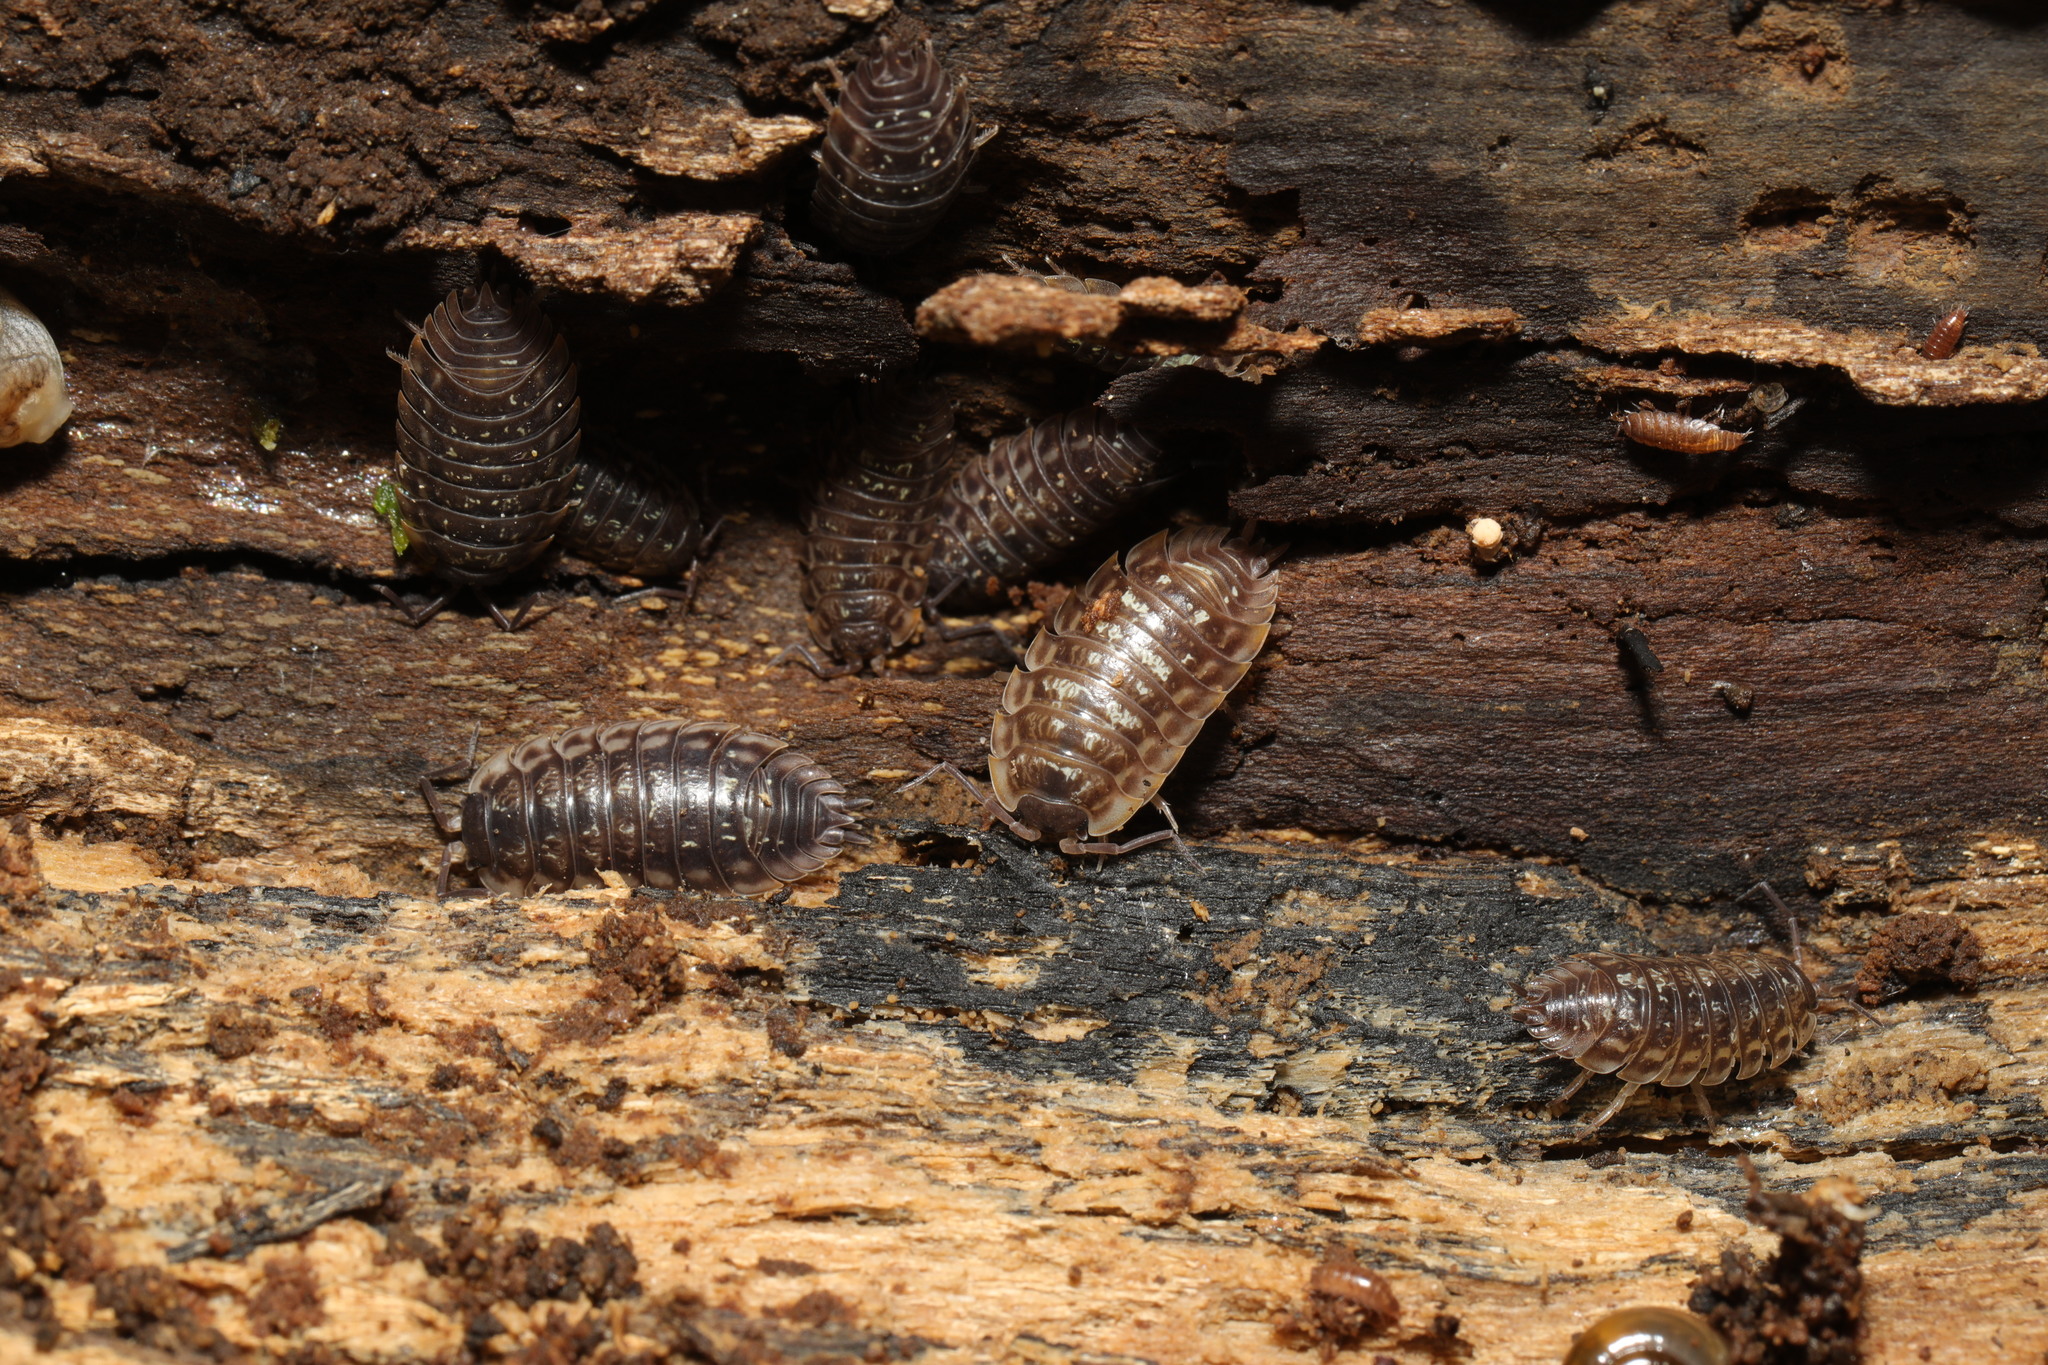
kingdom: Animalia
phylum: Arthropoda
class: Malacostraca
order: Isopoda
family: Oniscidae
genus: Oniscus
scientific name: Oniscus asellus
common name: Common shiny woodlouse
